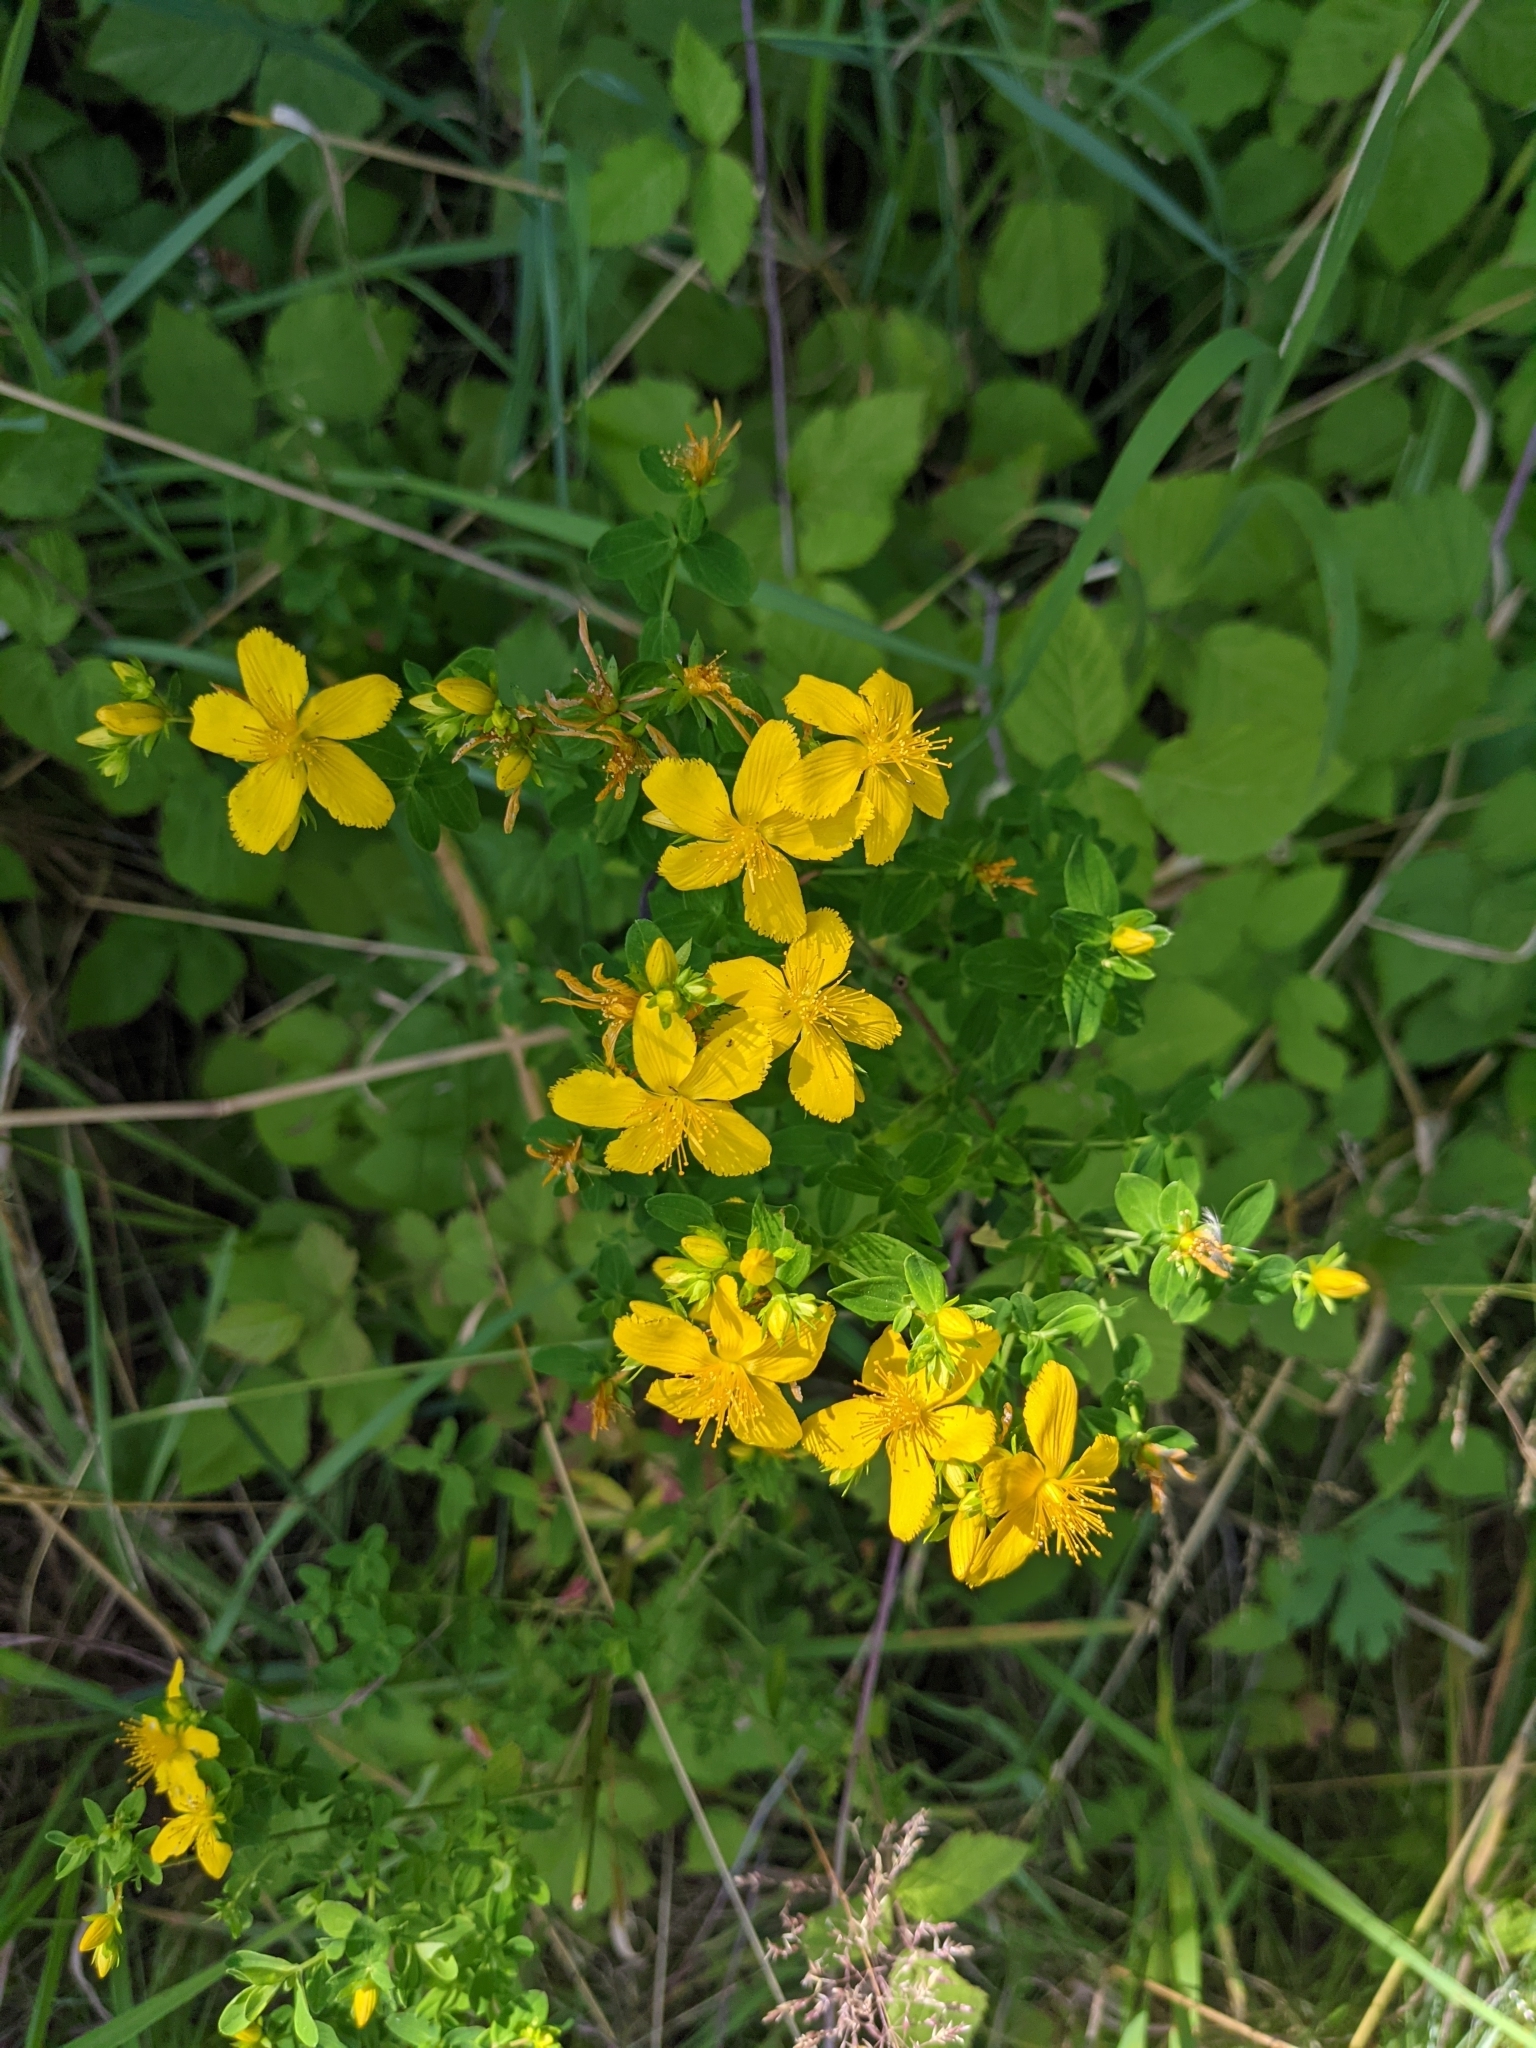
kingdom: Plantae
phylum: Tracheophyta
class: Magnoliopsida
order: Malpighiales
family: Hypericaceae
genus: Hypericum
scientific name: Hypericum perforatum
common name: Common st. johnswort
